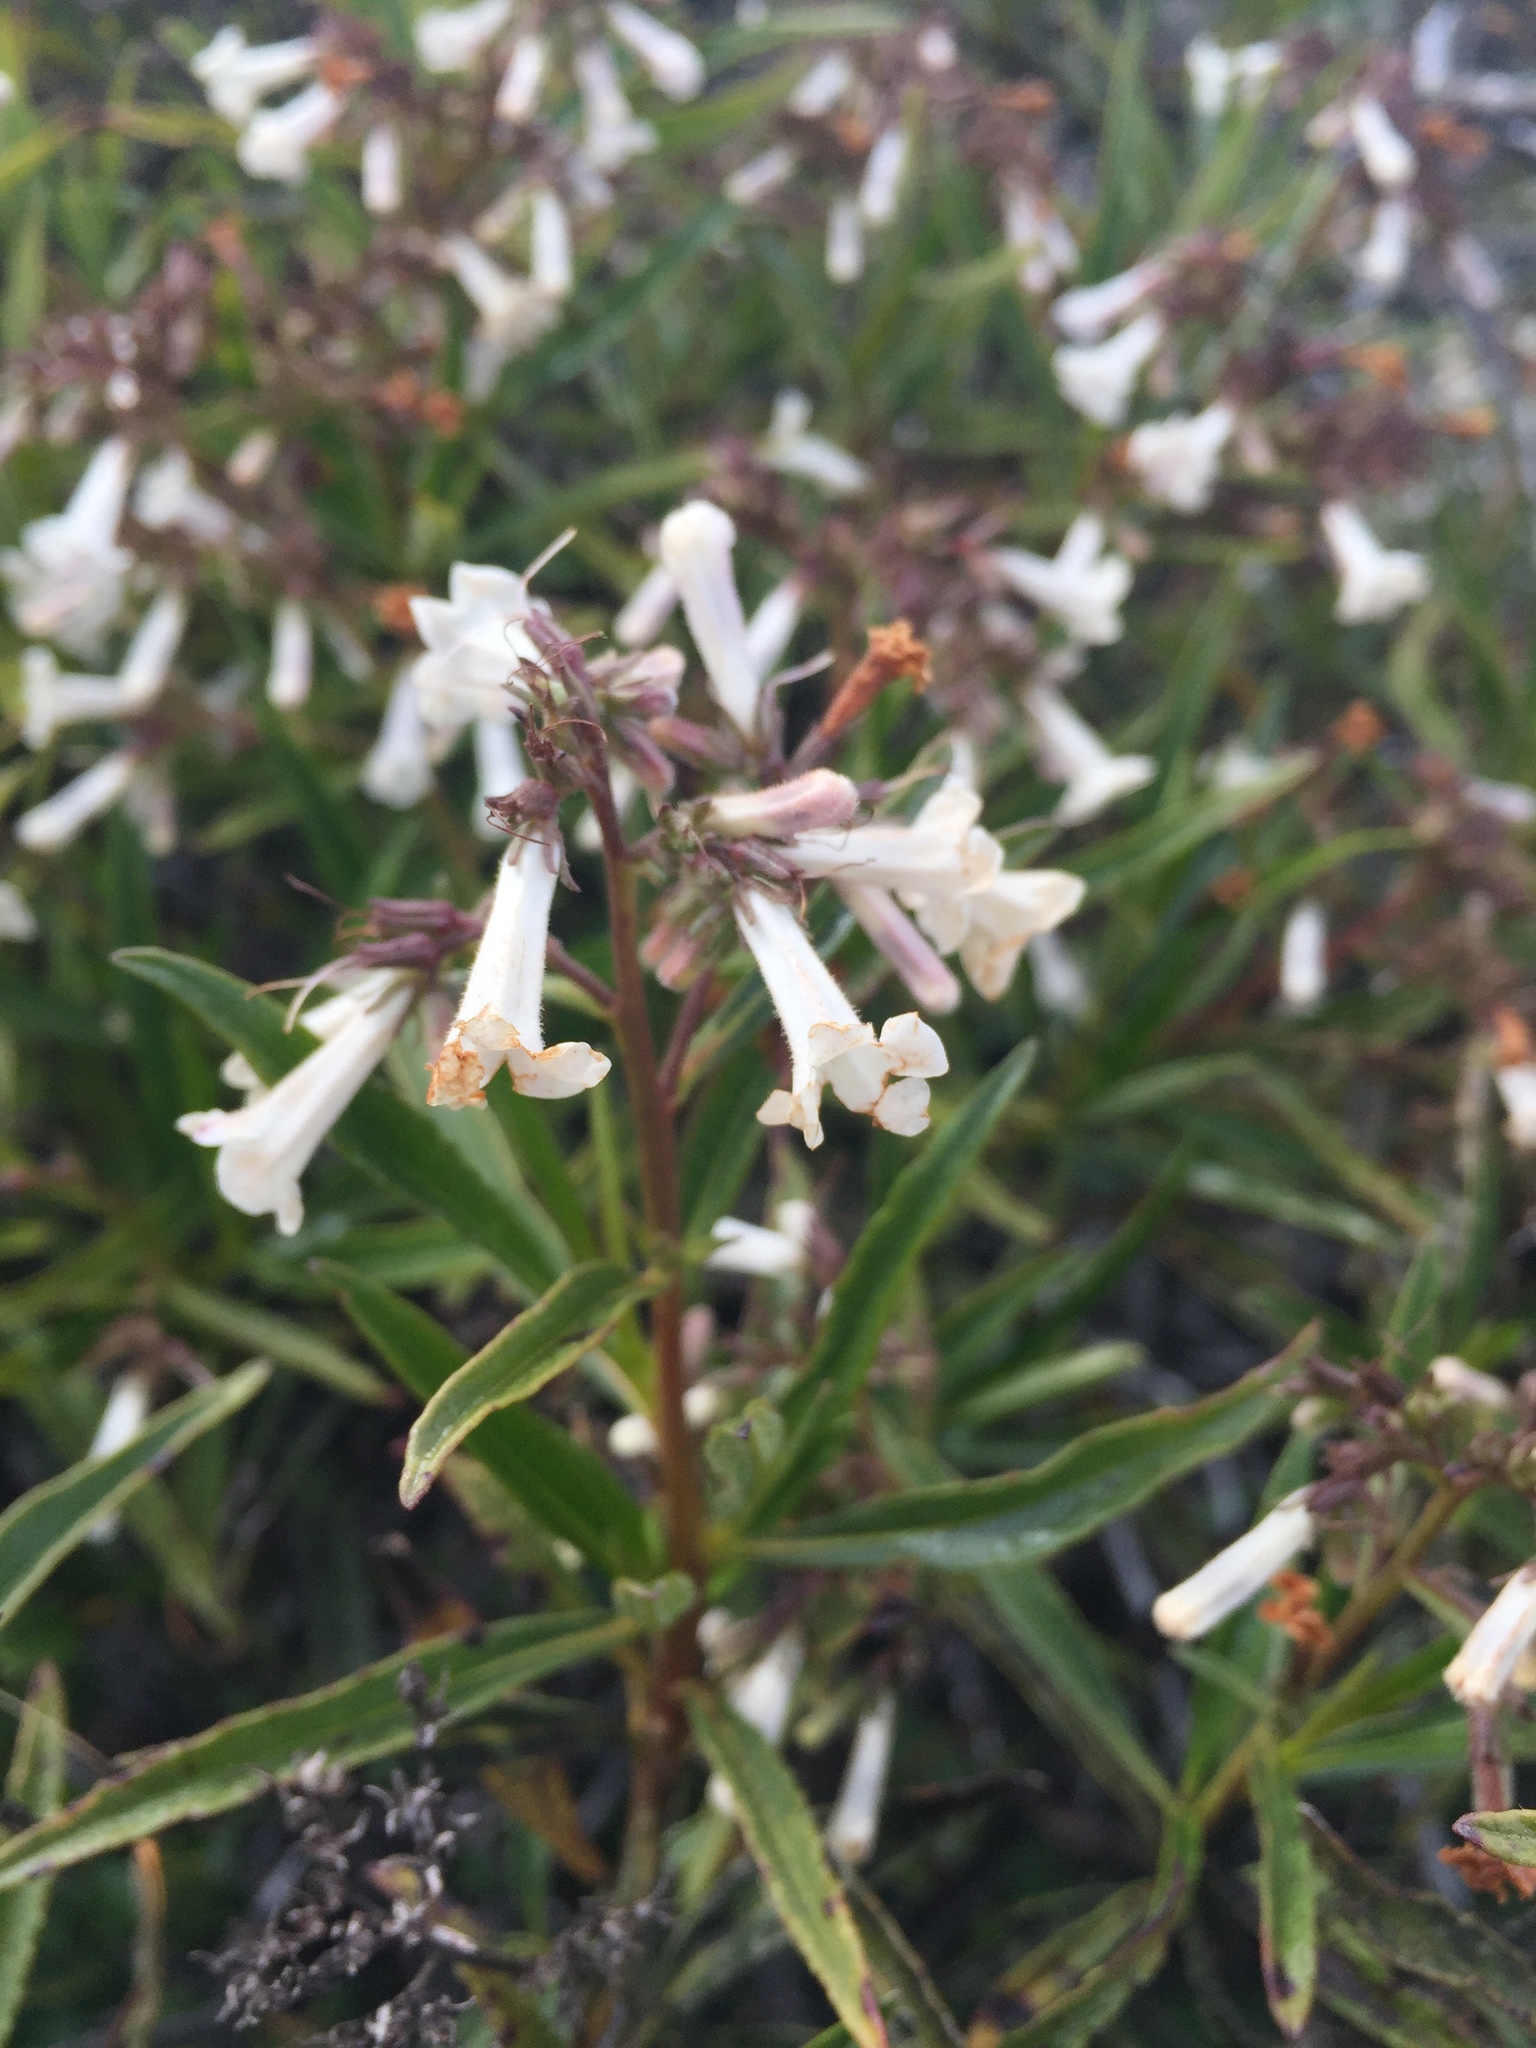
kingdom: Plantae
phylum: Tracheophyta
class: Magnoliopsida
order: Boraginales
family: Namaceae
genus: Eriodictyon
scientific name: Eriodictyon californicum
